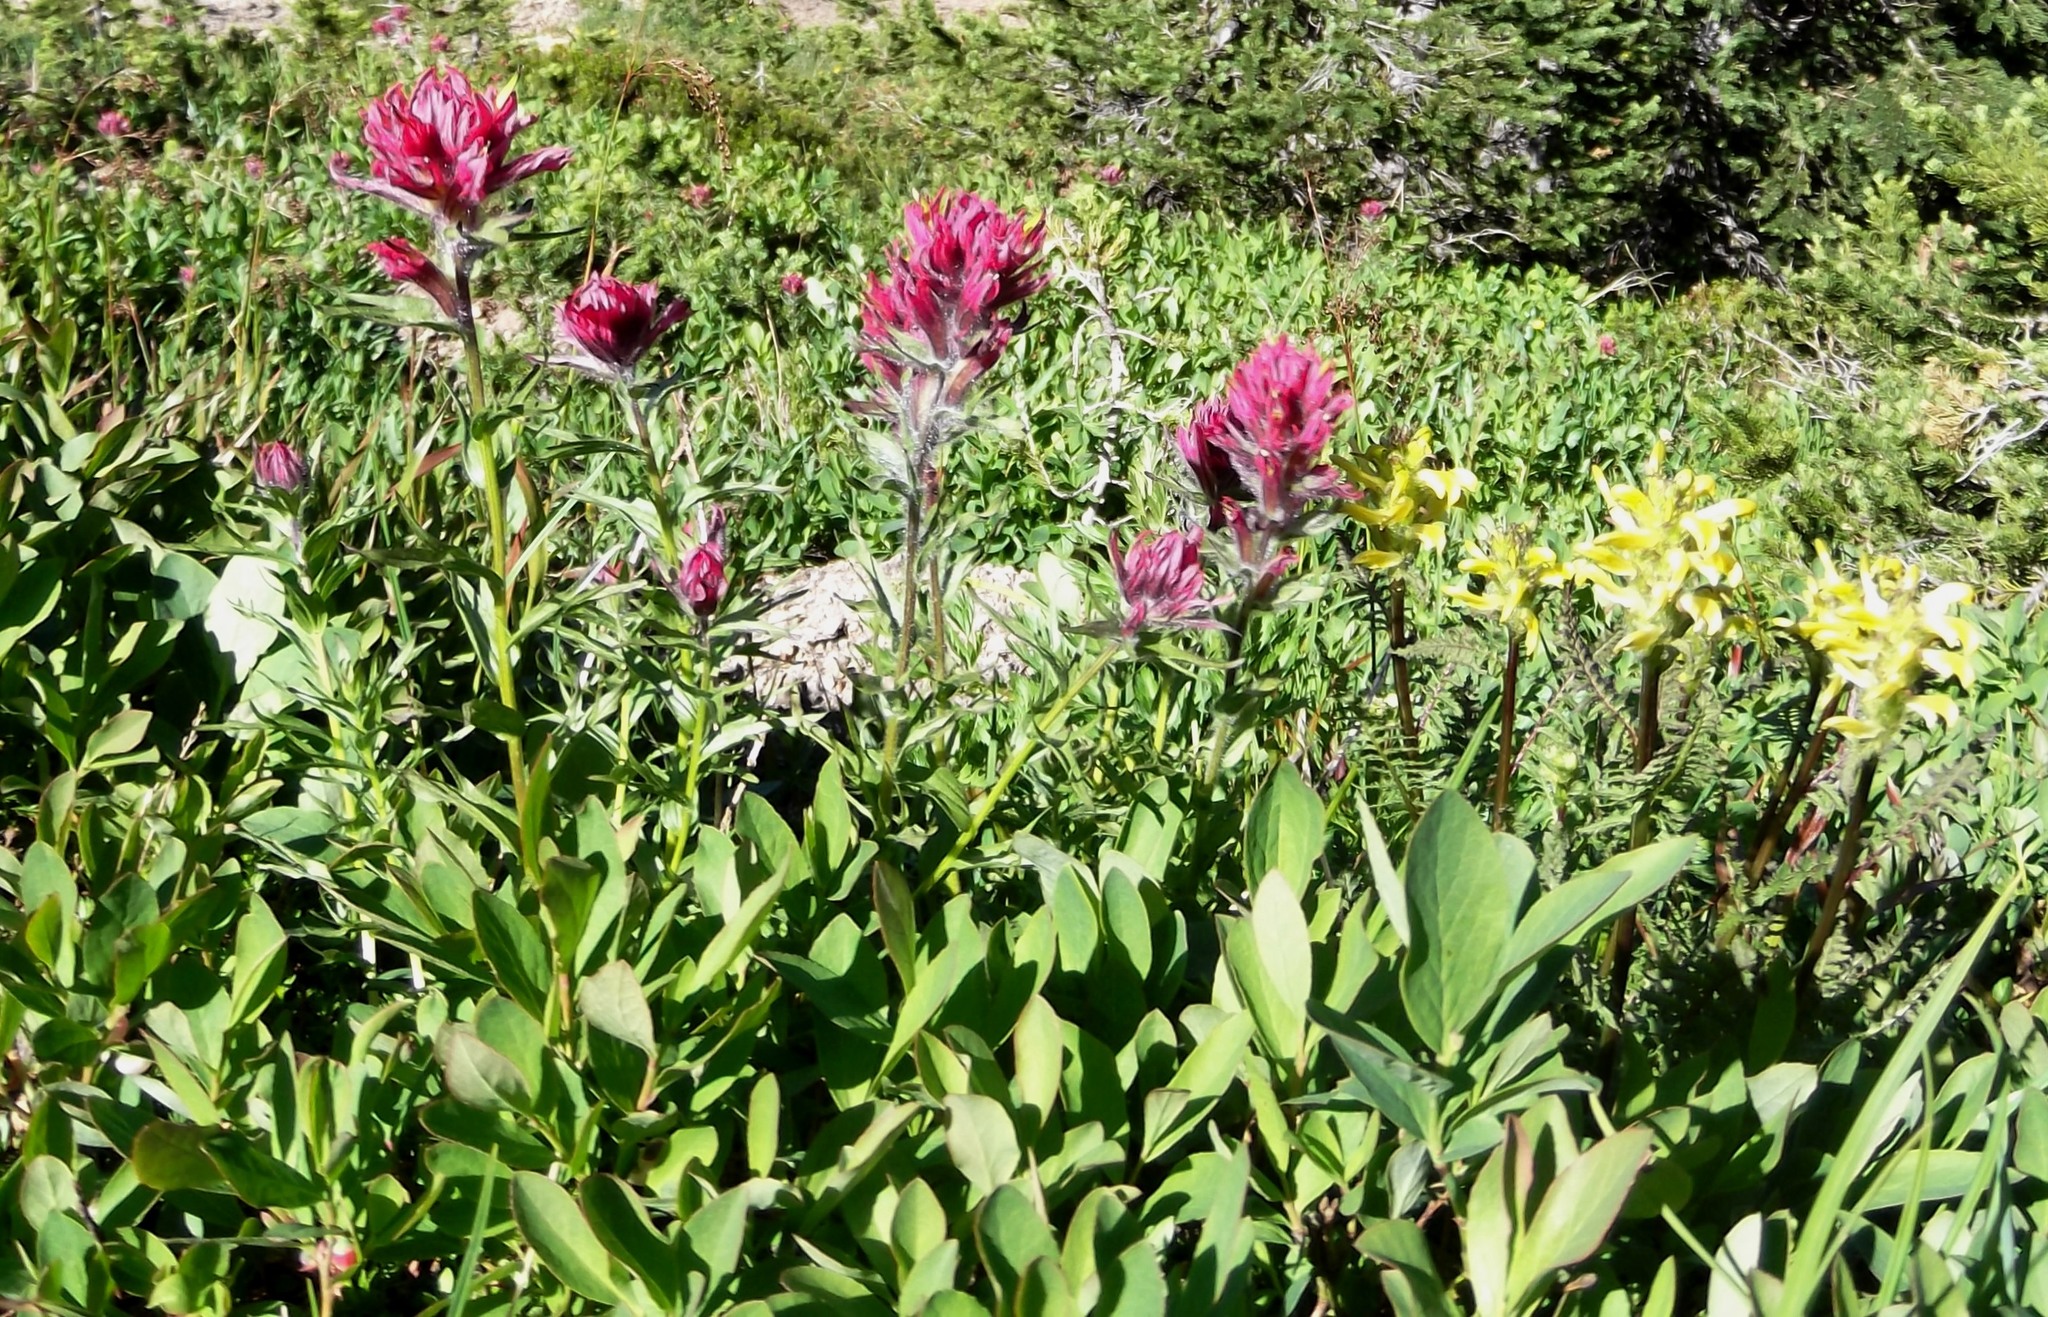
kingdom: Plantae
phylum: Tracheophyta
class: Magnoliopsida
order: Lamiales
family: Orobanchaceae
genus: Castilleja
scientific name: Castilleja parviflora
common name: Mountain paintbrush
